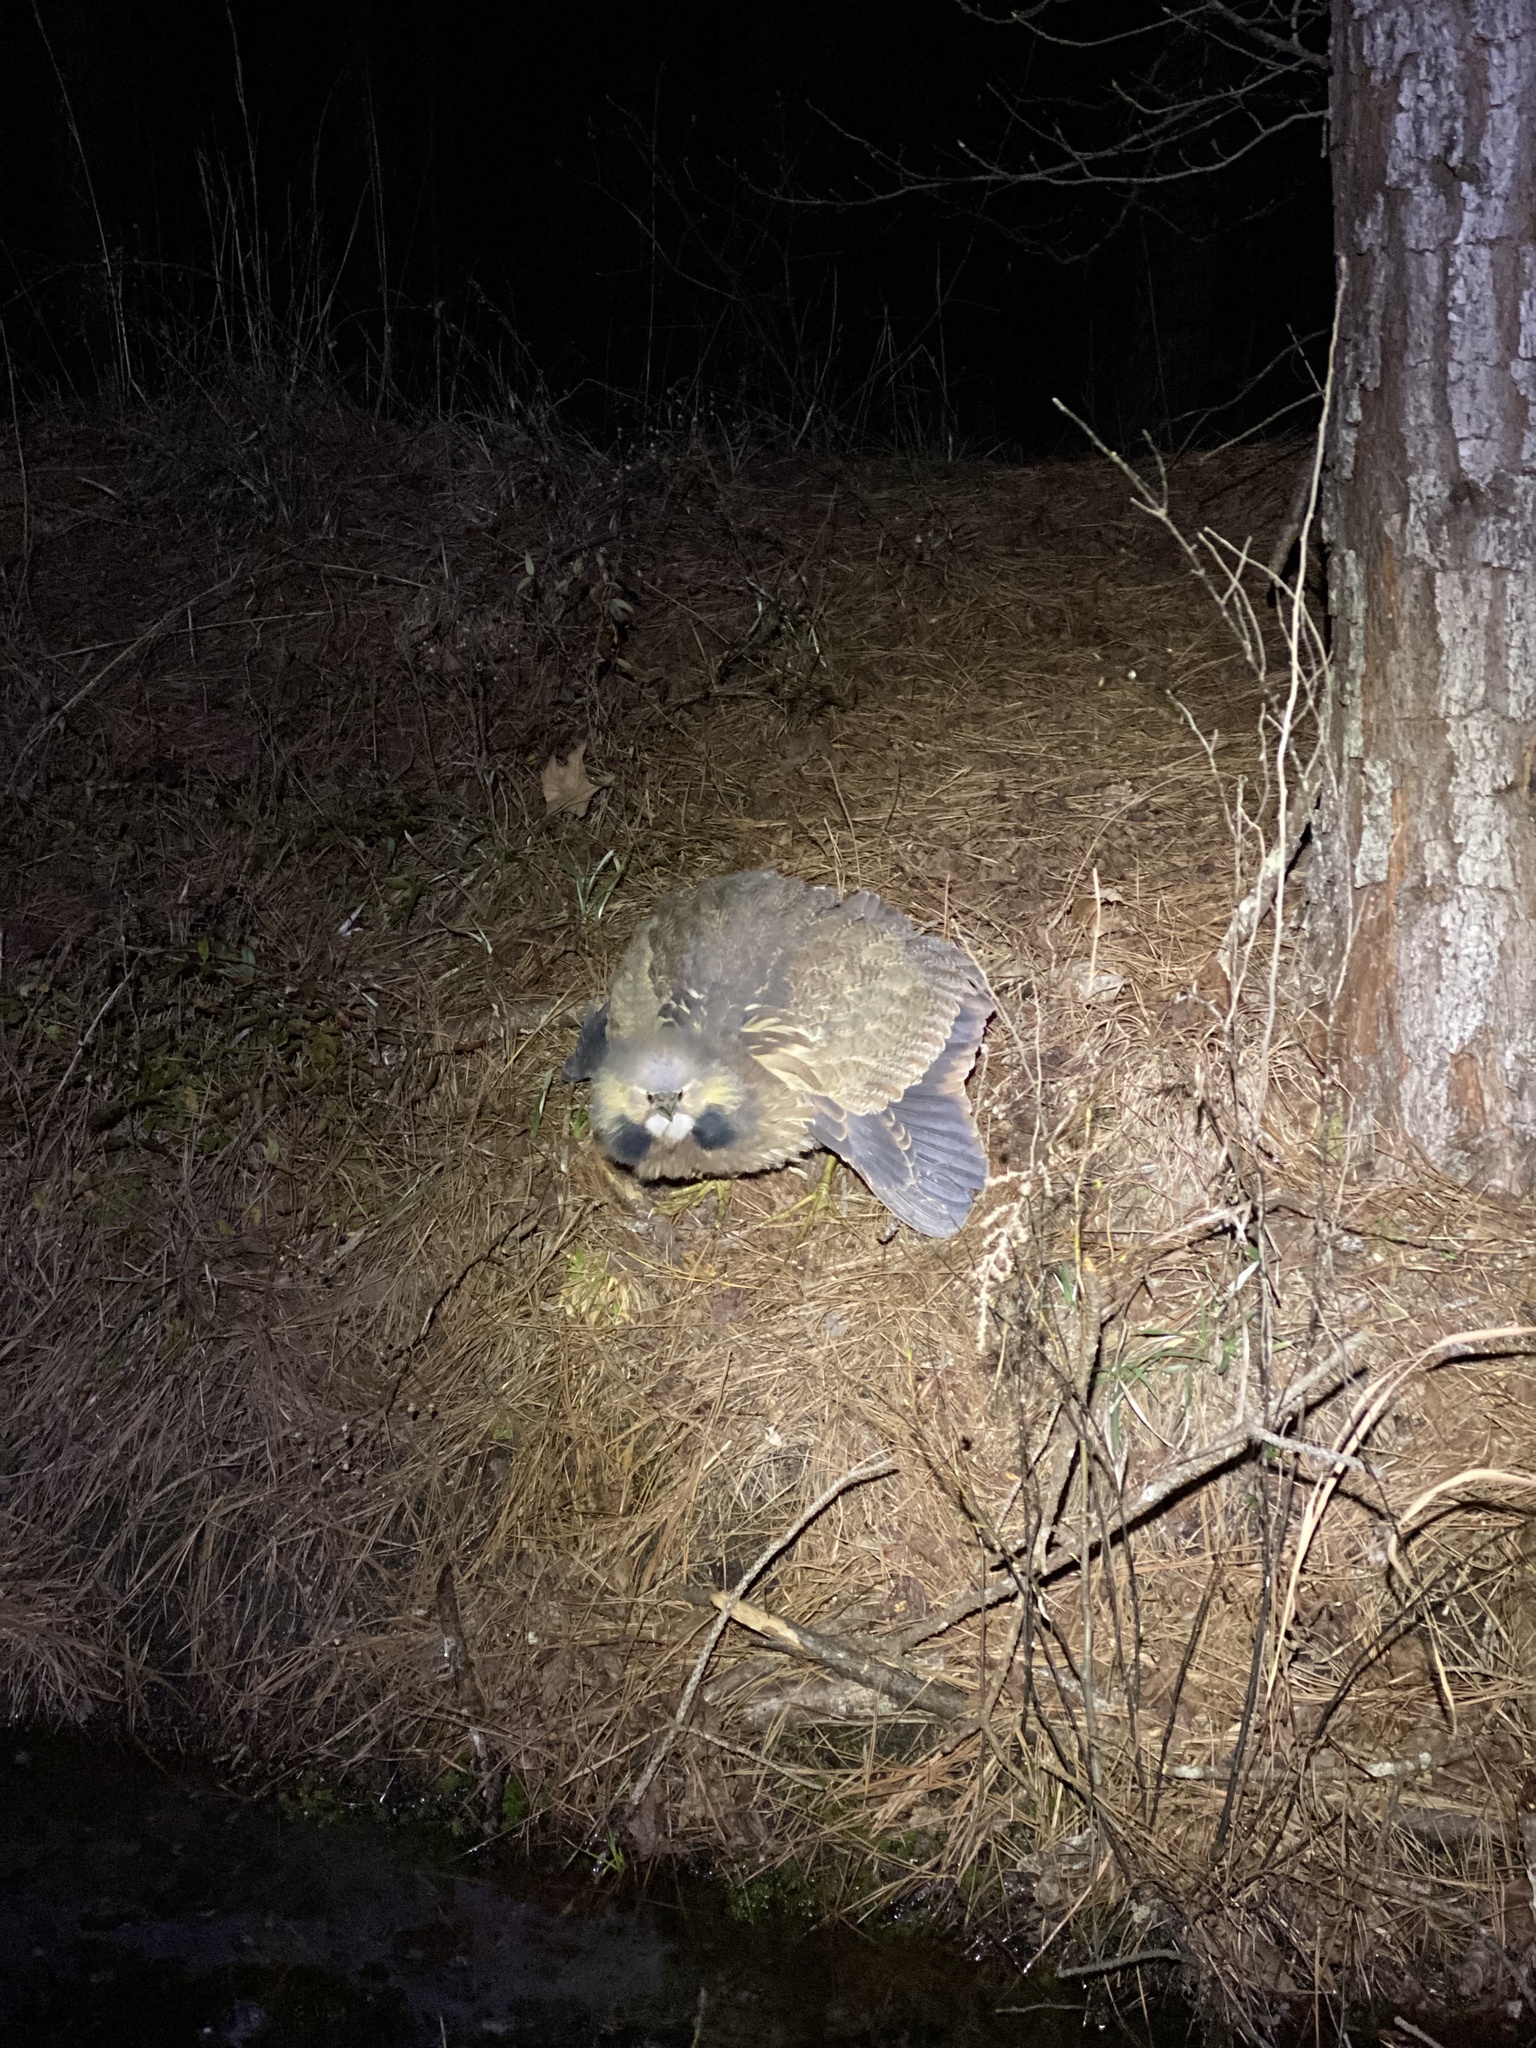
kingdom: Animalia
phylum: Chordata
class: Aves
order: Pelecaniformes
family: Ardeidae
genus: Botaurus
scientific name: Botaurus lentiginosus
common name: American bittern
